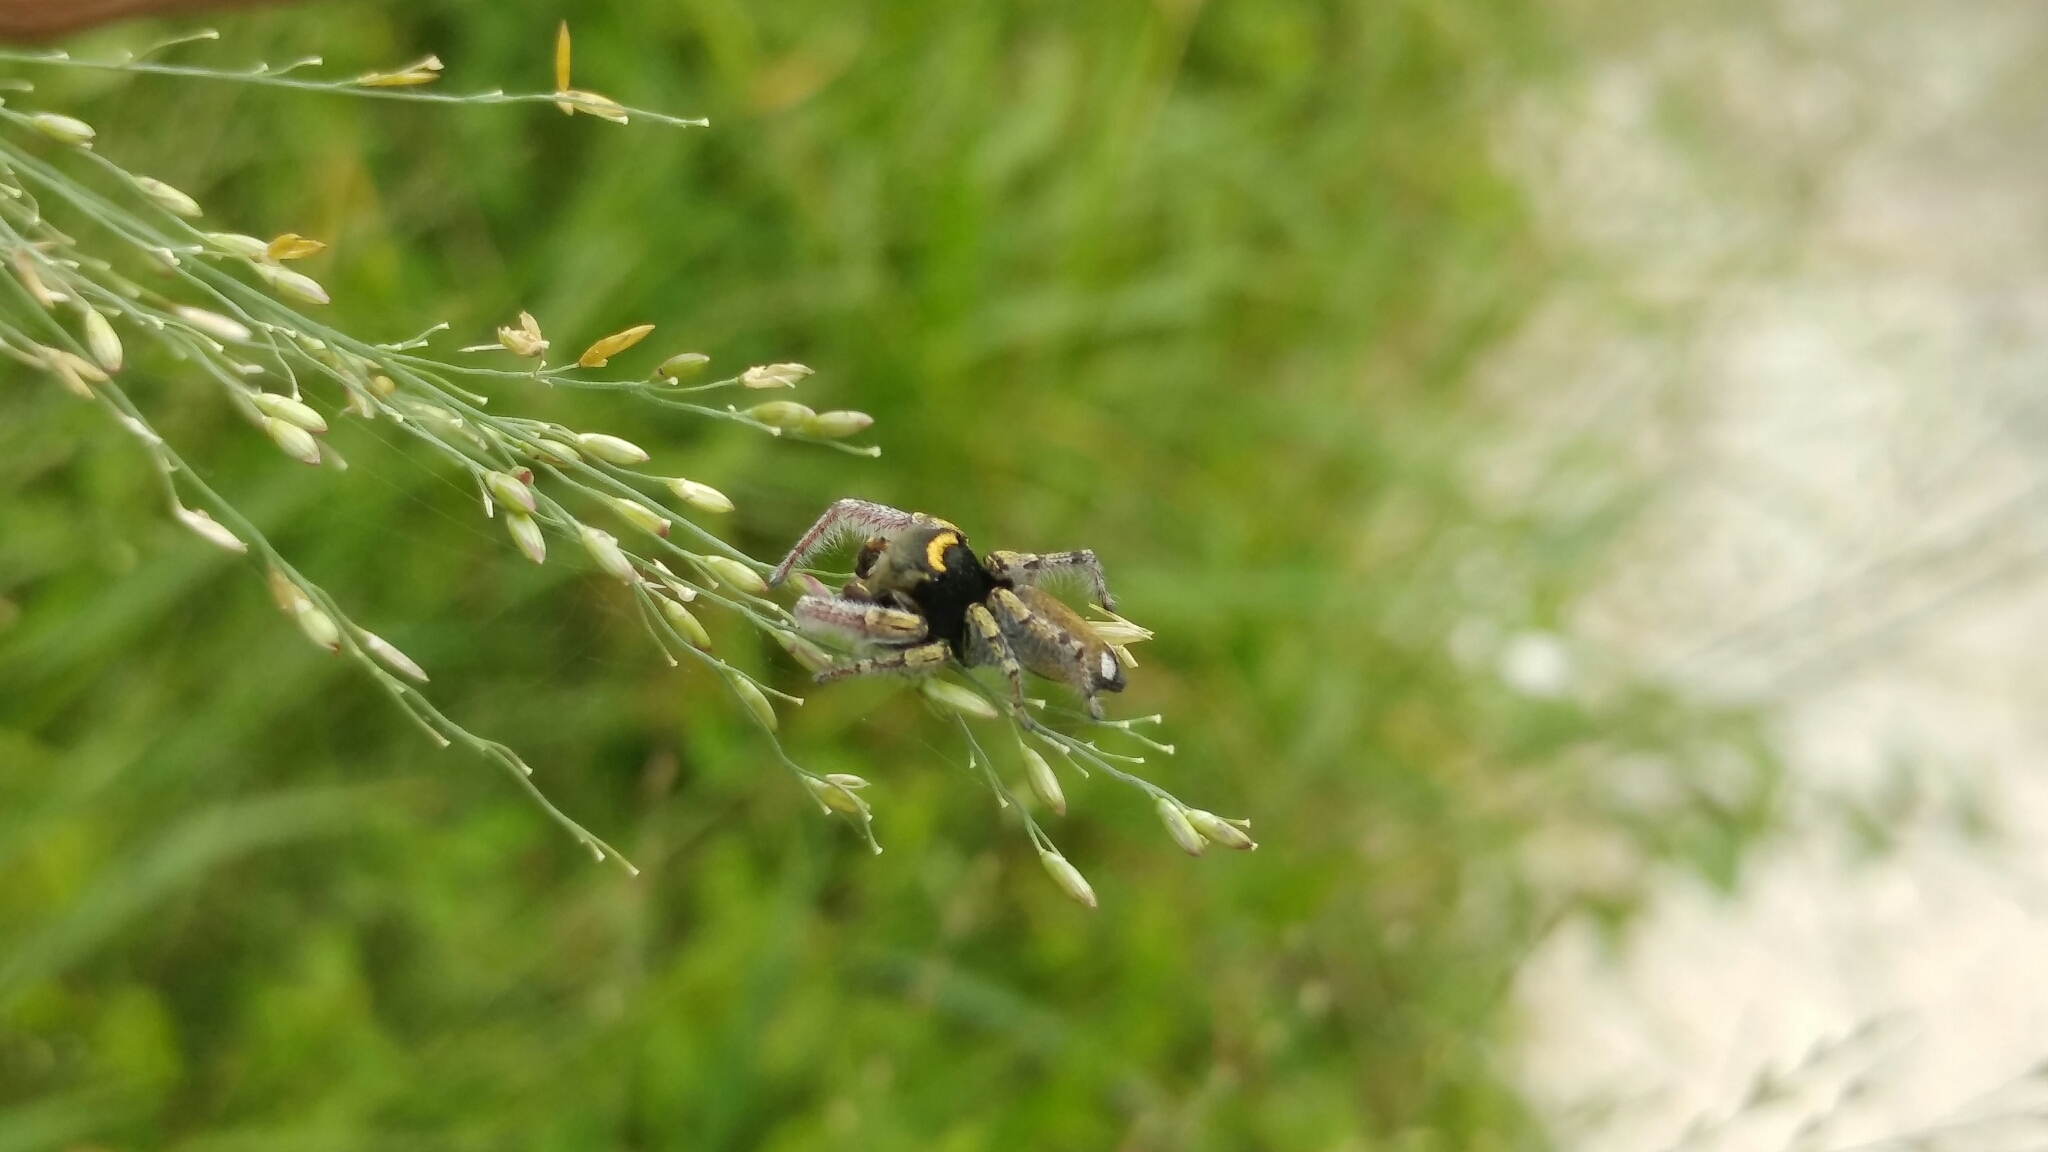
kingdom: Animalia
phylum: Arthropoda
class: Arachnida
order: Araneae
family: Salticidae
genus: Phidippus
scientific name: Phidippus arizonensis
